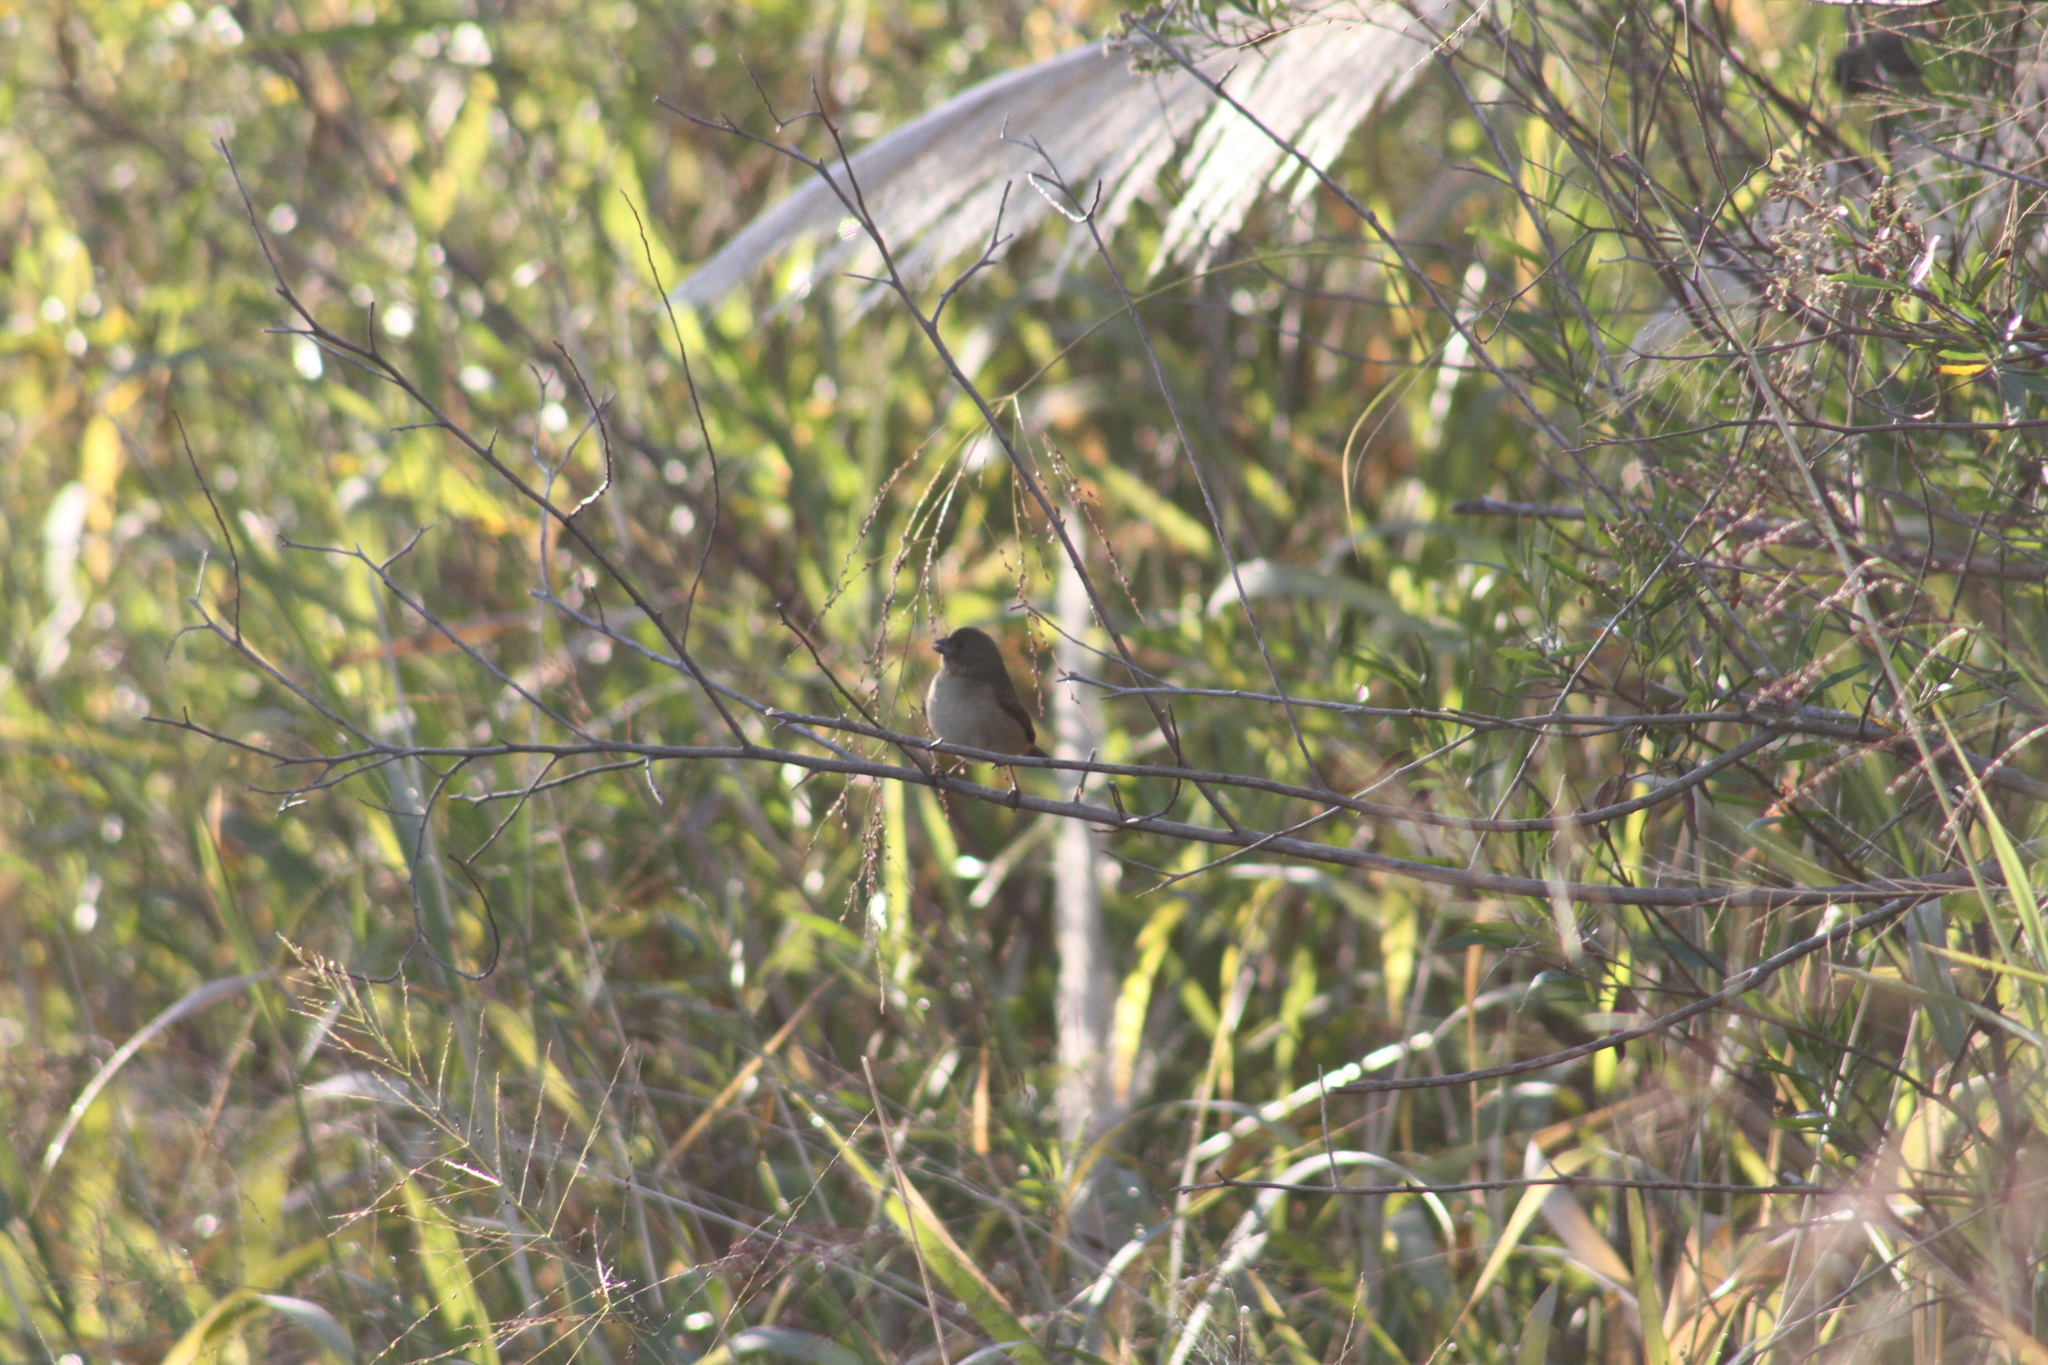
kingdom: Animalia
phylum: Chordata
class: Aves
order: Passeriformes
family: Thraupidae
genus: Sporophila
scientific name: Sporophila caerulescens
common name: Double-collared seedeater
